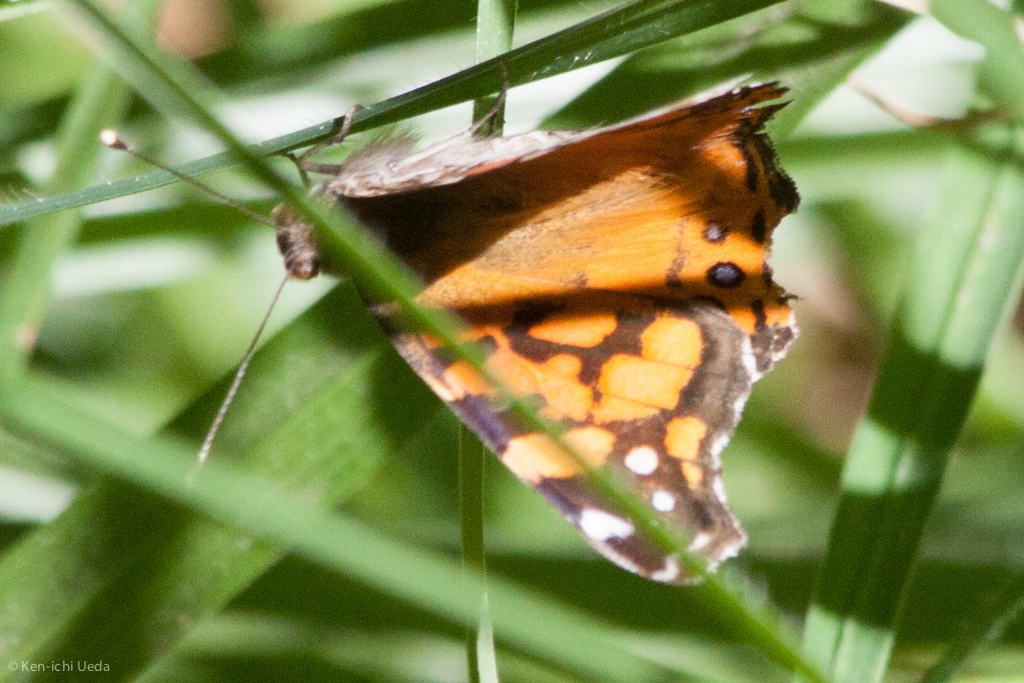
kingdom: Animalia
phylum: Arthropoda
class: Insecta
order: Lepidoptera
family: Nymphalidae
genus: Vanessa
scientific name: Vanessa annabella
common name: West coast lady
